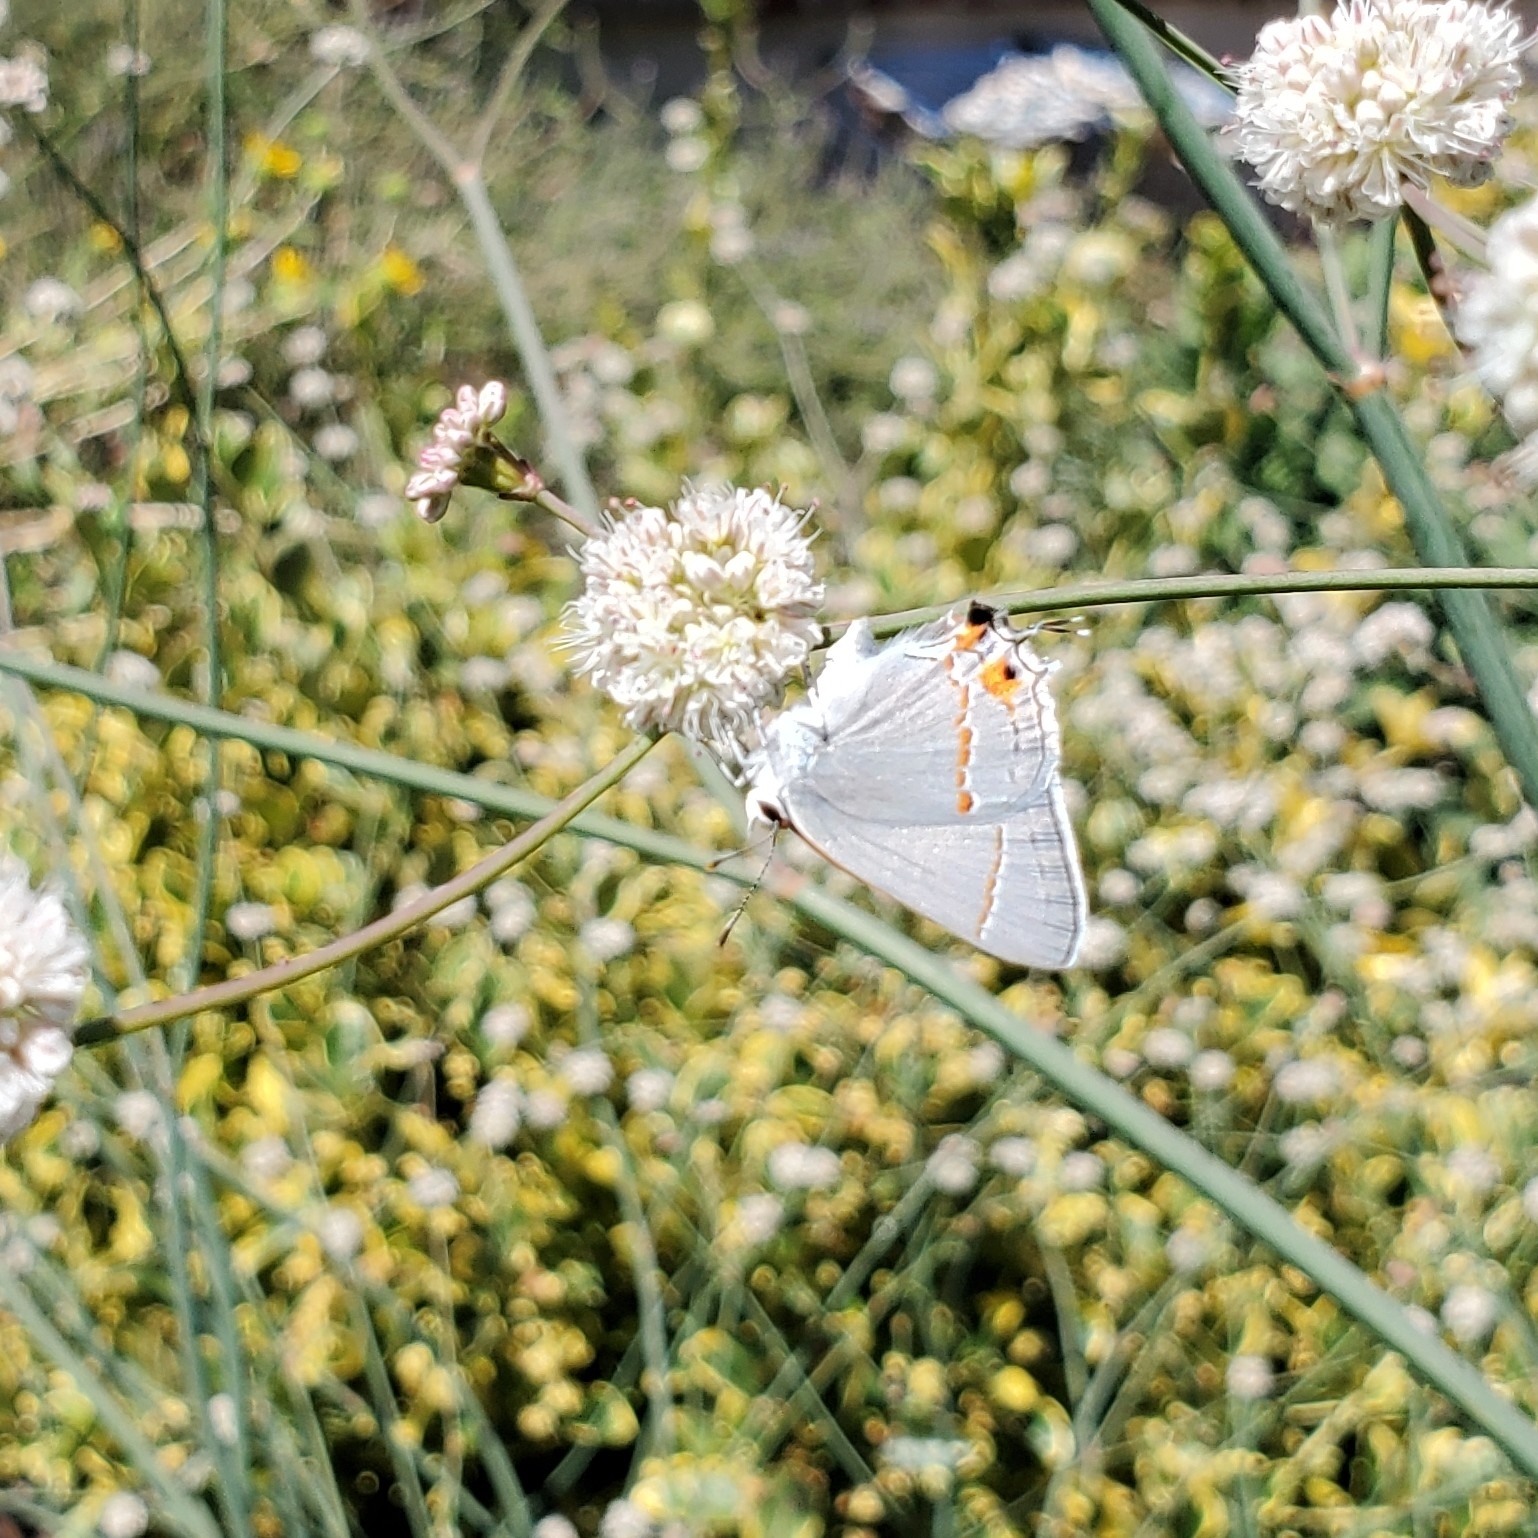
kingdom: Animalia
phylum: Arthropoda
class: Insecta
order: Lepidoptera
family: Lycaenidae
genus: Strymon
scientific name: Strymon melinus
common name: Gray hairstreak
